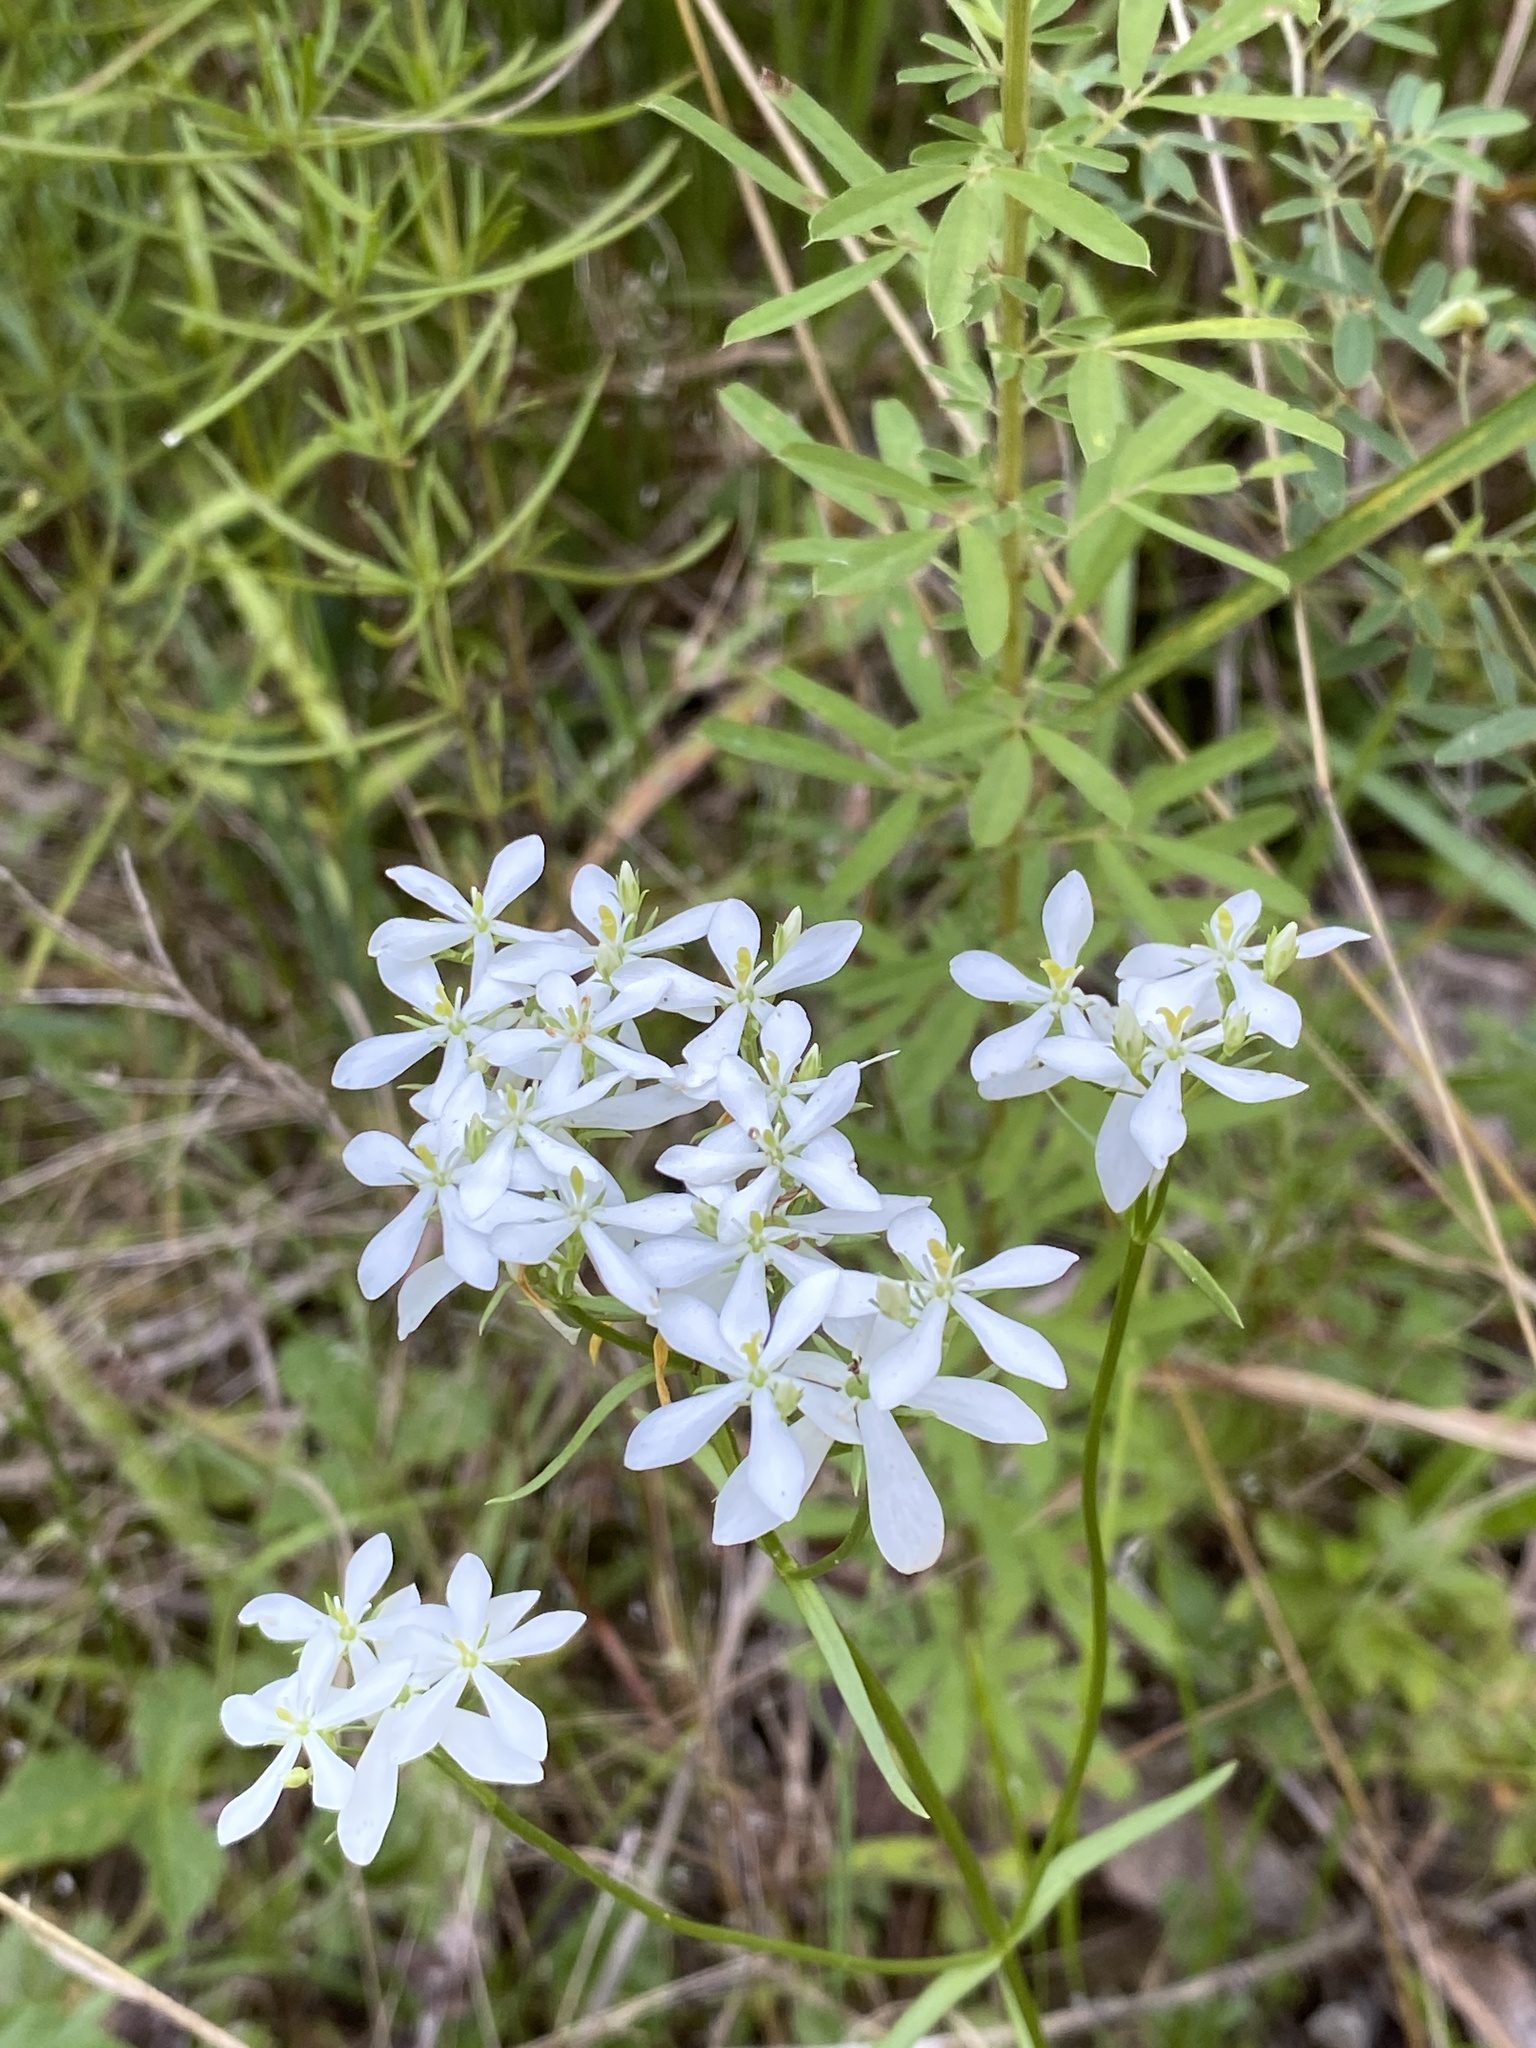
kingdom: Plantae
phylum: Tracheophyta
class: Magnoliopsida
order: Gentianales
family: Gentianaceae
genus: Sabatia
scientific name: Sabatia quadrangula
